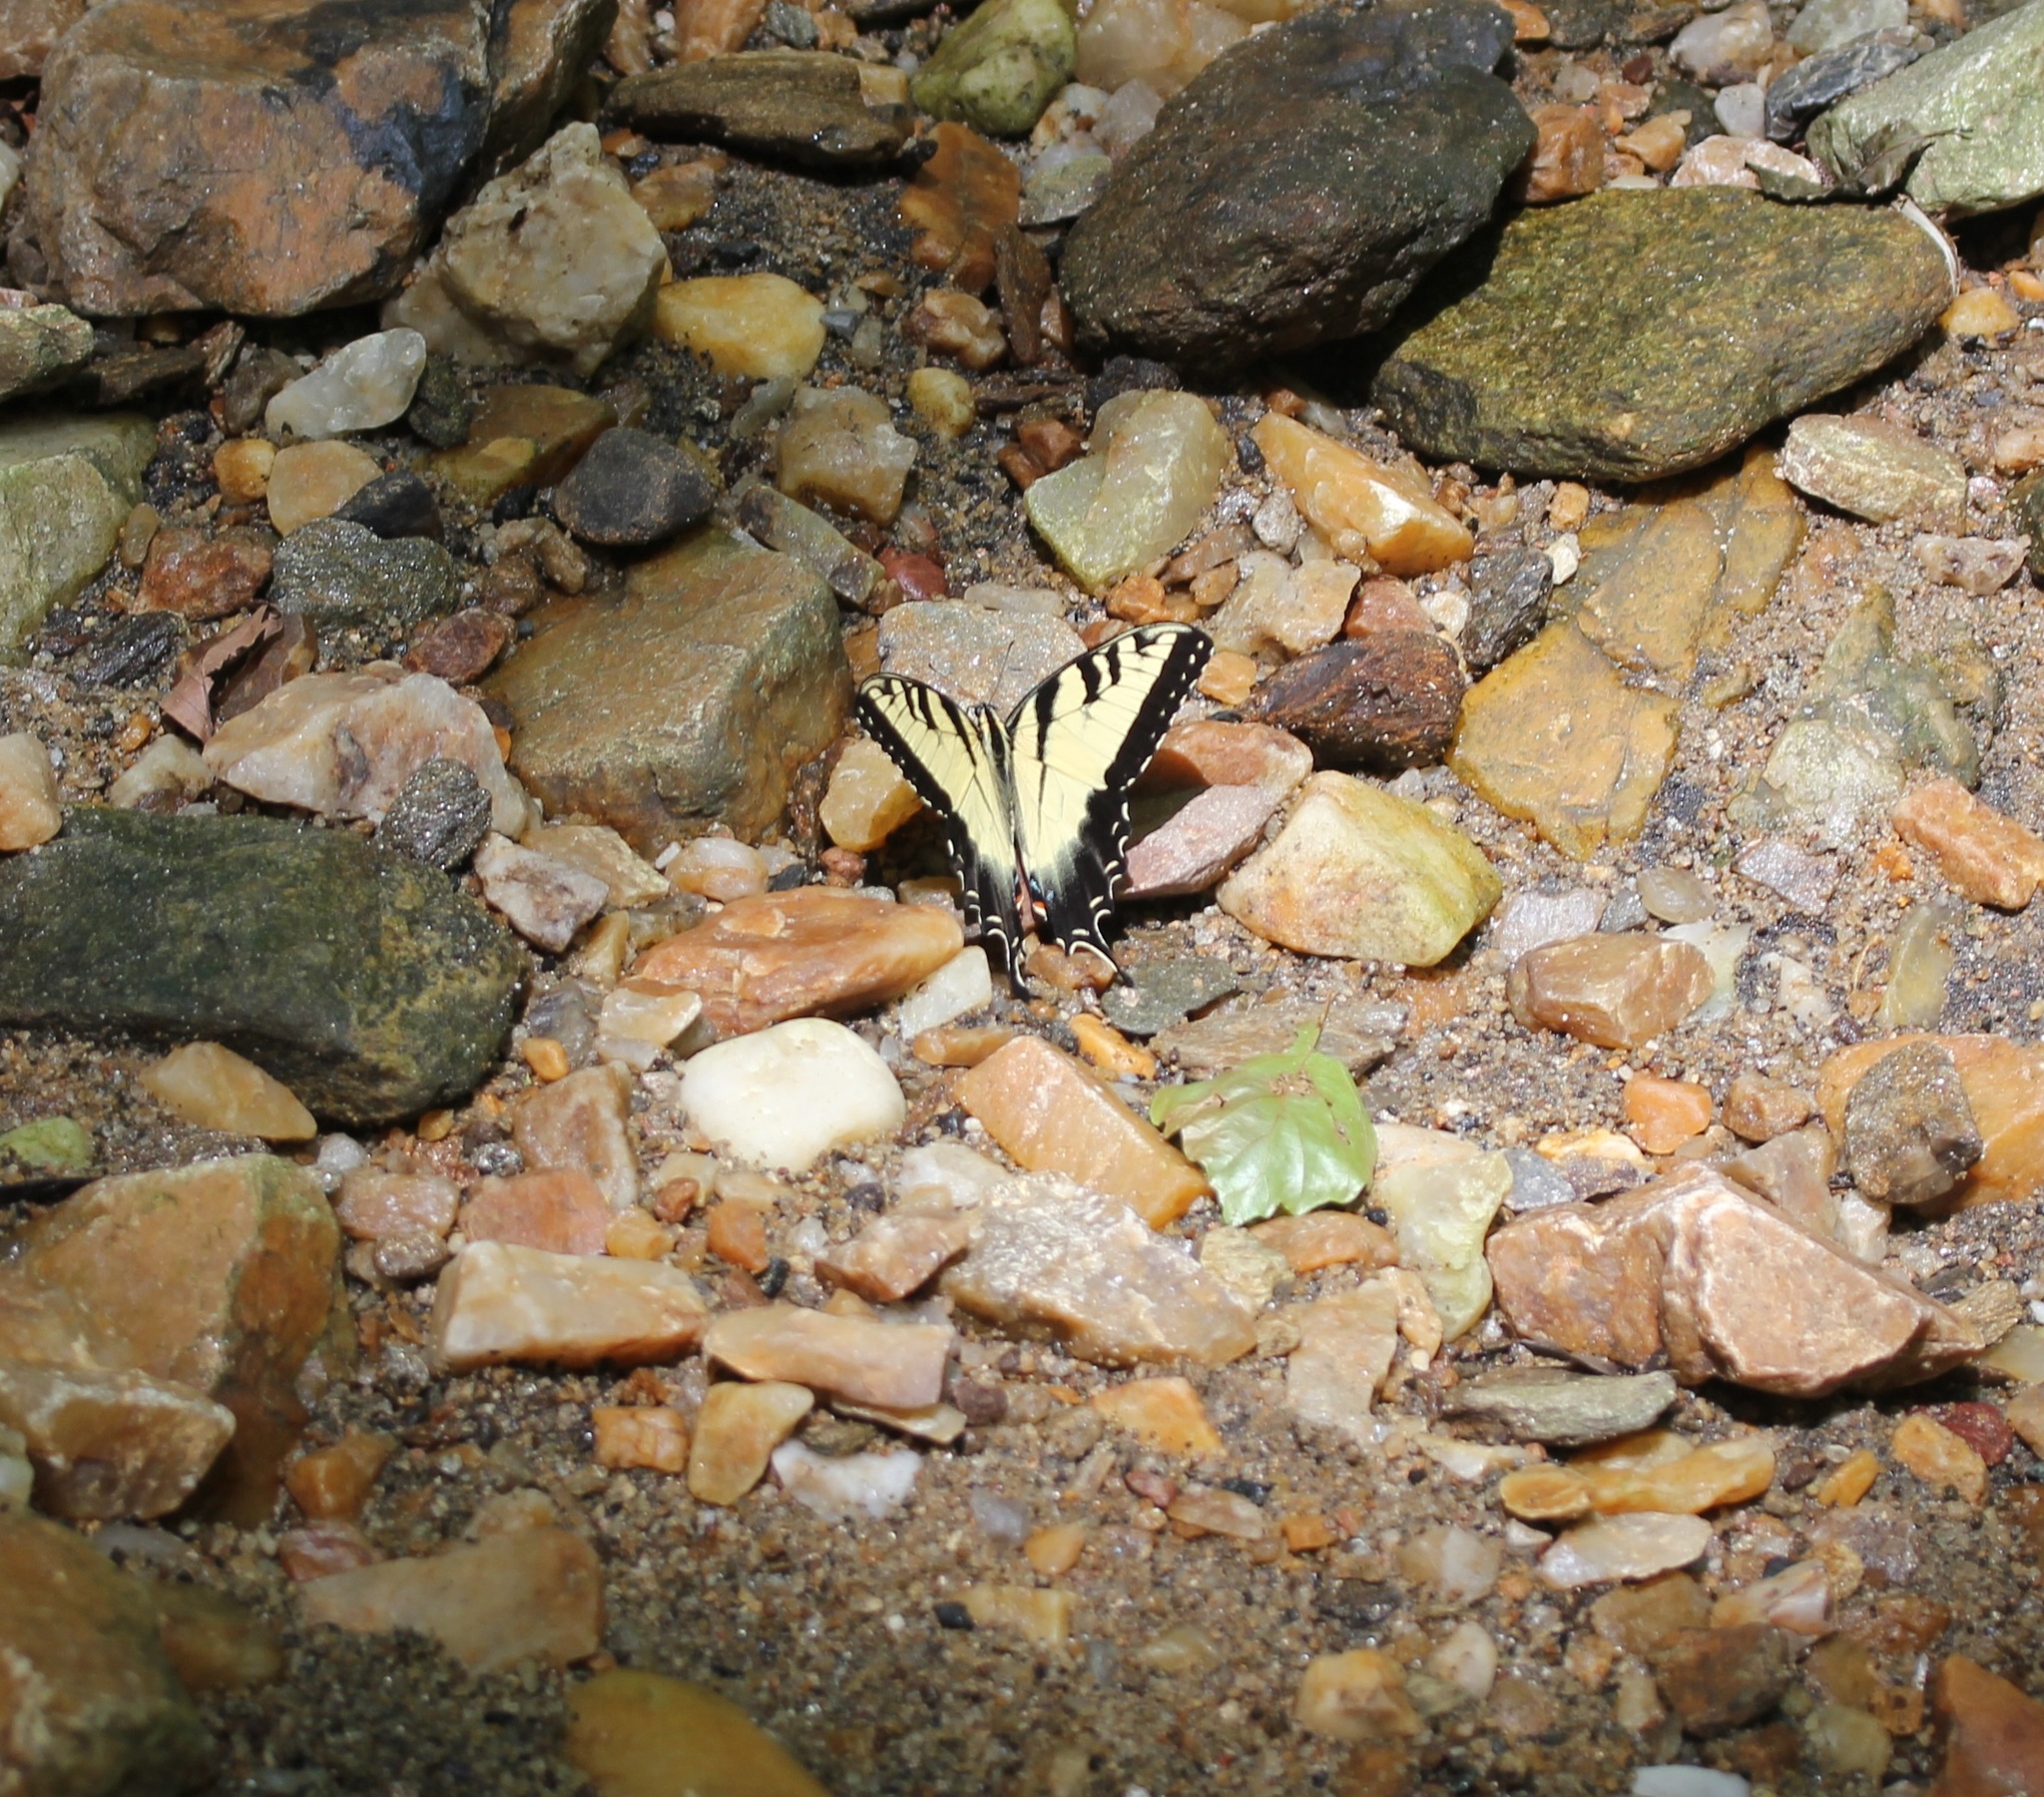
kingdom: Animalia
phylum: Arthropoda
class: Insecta
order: Lepidoptera
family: Papilionidae
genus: Papilio
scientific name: Papilio glaucus
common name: Tiger swallowtail
